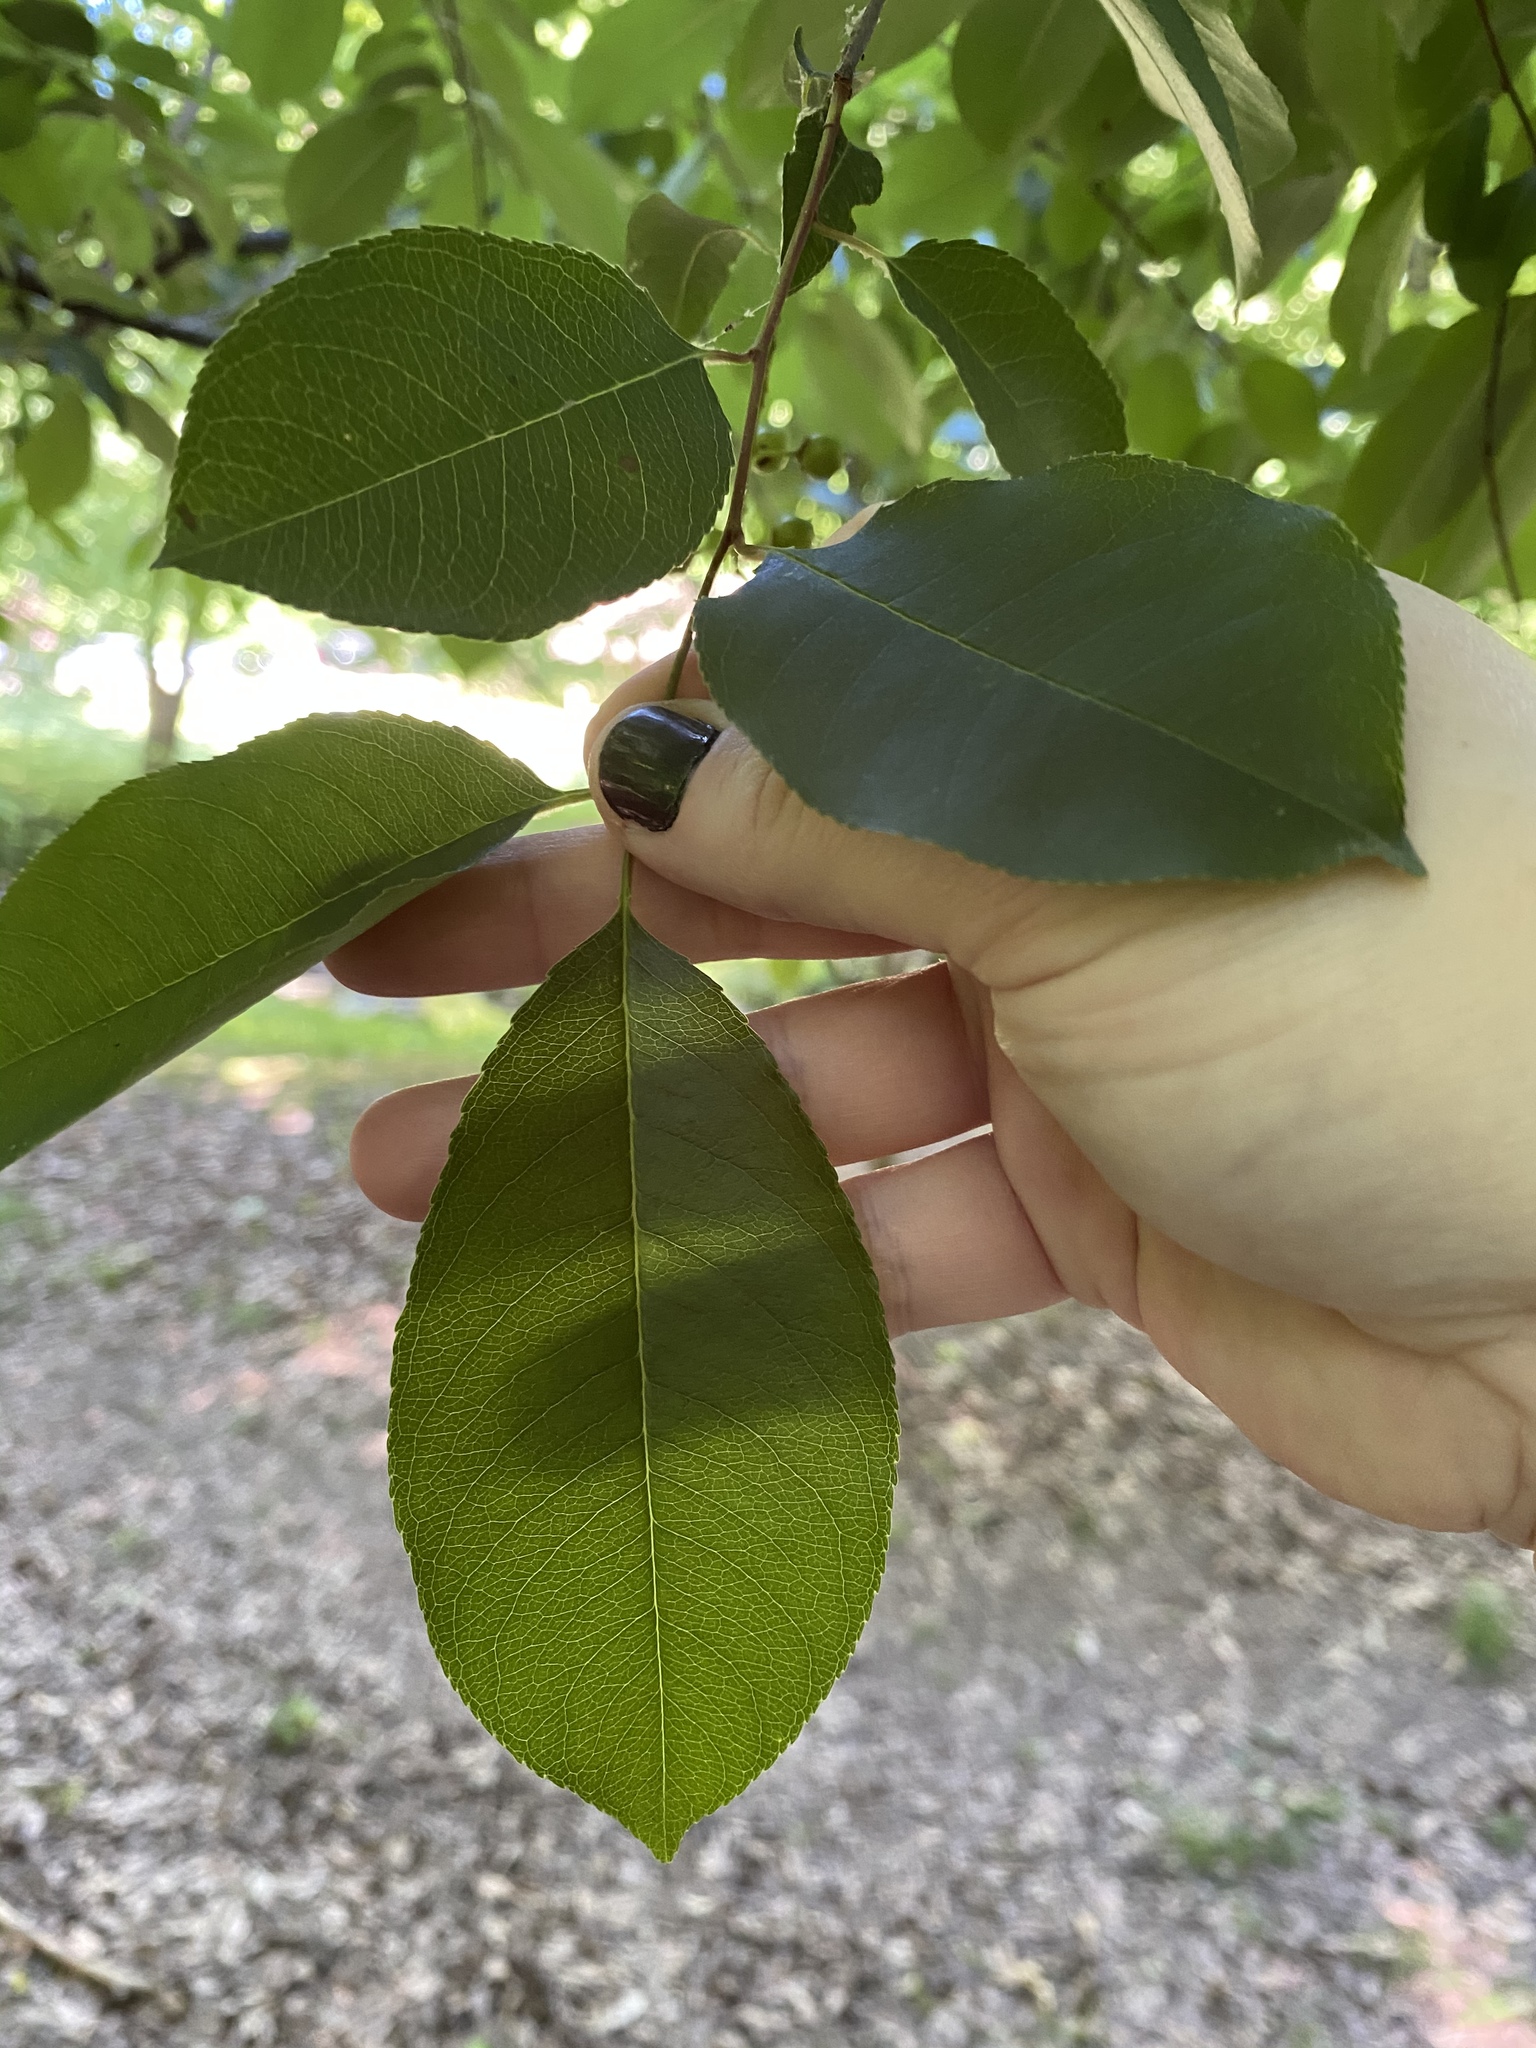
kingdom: Plantae
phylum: Tracheophyta
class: Magnoliopsida
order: Rosales
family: Rosaceae
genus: Prunus
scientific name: Prunus serotina
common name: Black cherry
